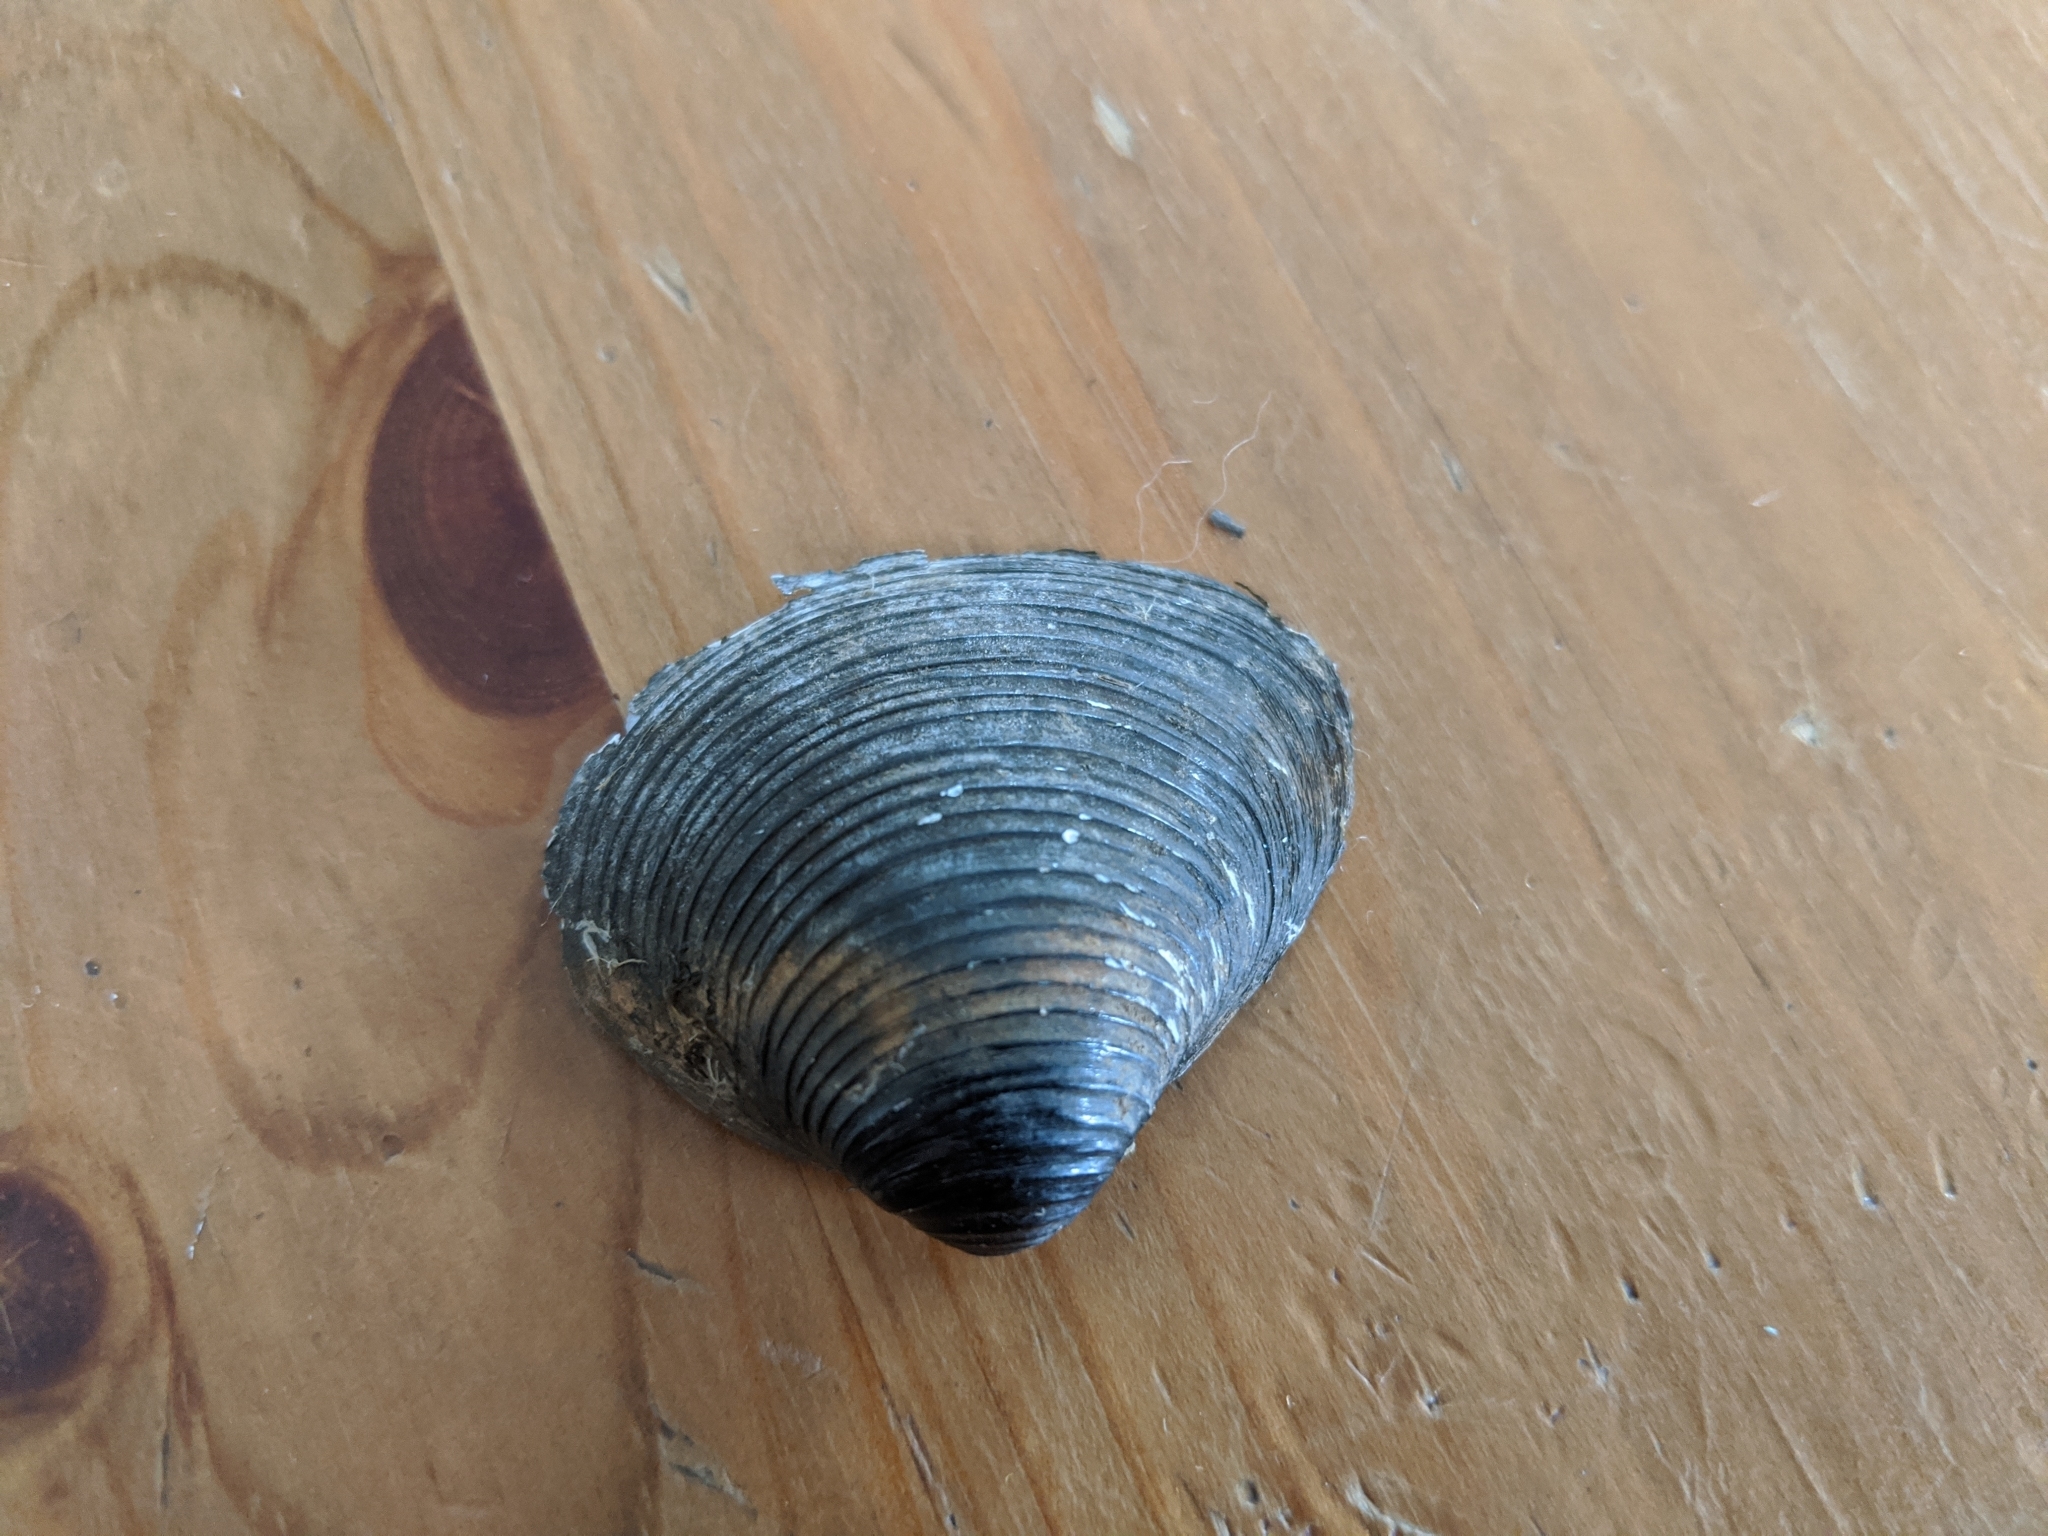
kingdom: Animalia
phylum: Mollusca
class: Bivalvia
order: Venerida
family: Cyrenidae
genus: Corbicula
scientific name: Corbicula fluminea
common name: Asian clam
